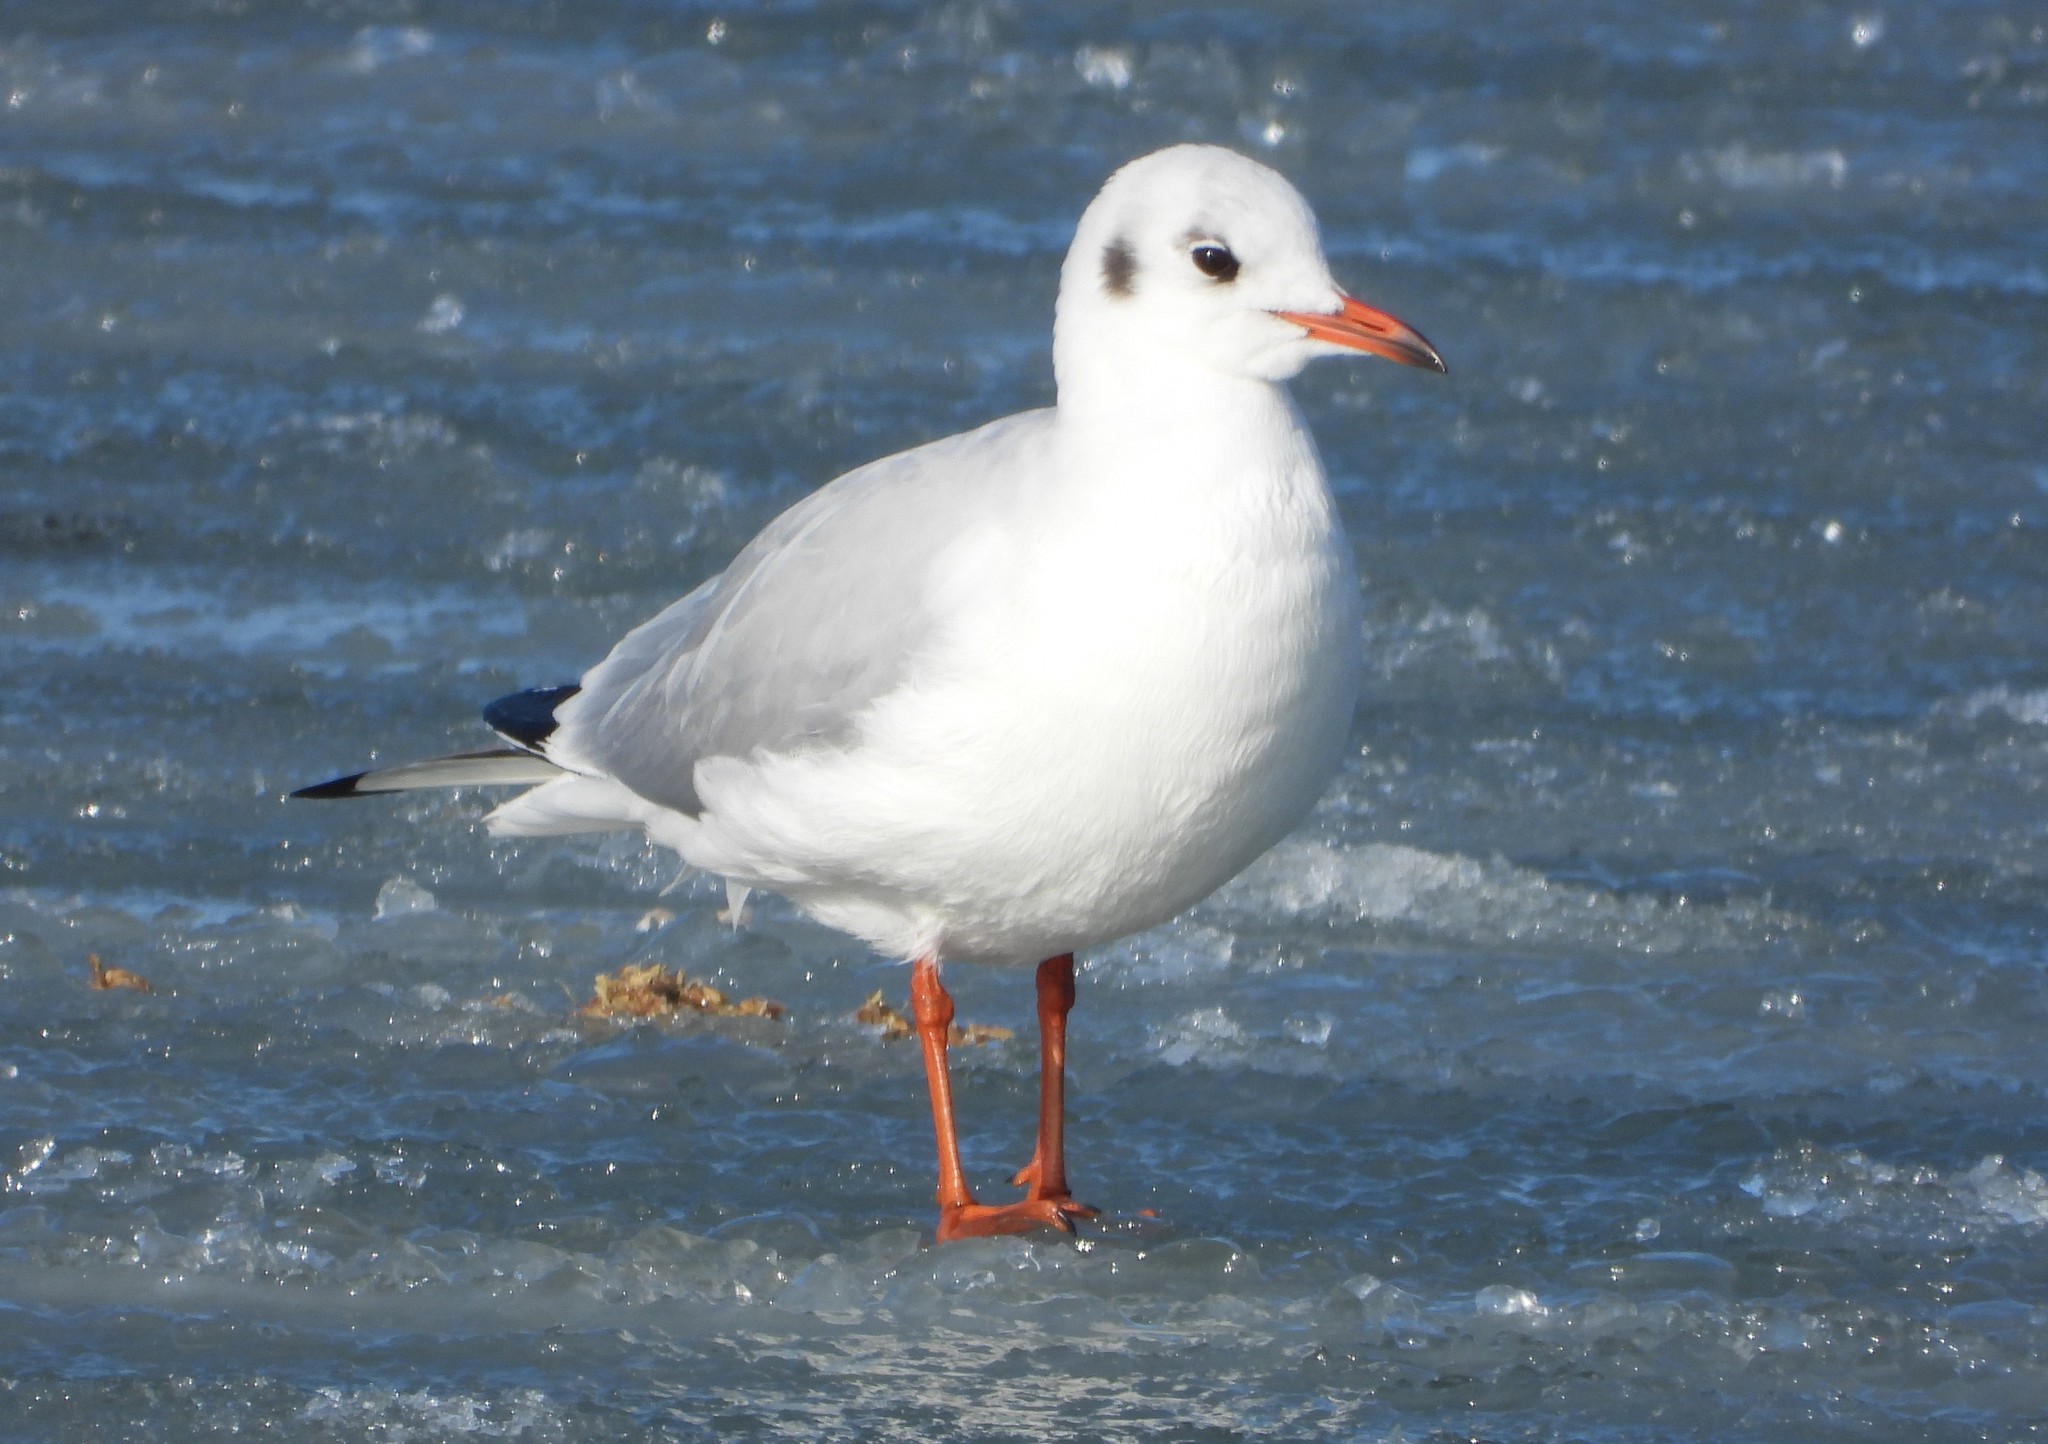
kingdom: Animalia
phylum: Chordata
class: Aves
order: Charadriiformes
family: Laridae
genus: Chroicocephalus
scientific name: Chroicocephalus ridibundus
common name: Black-headed gull
